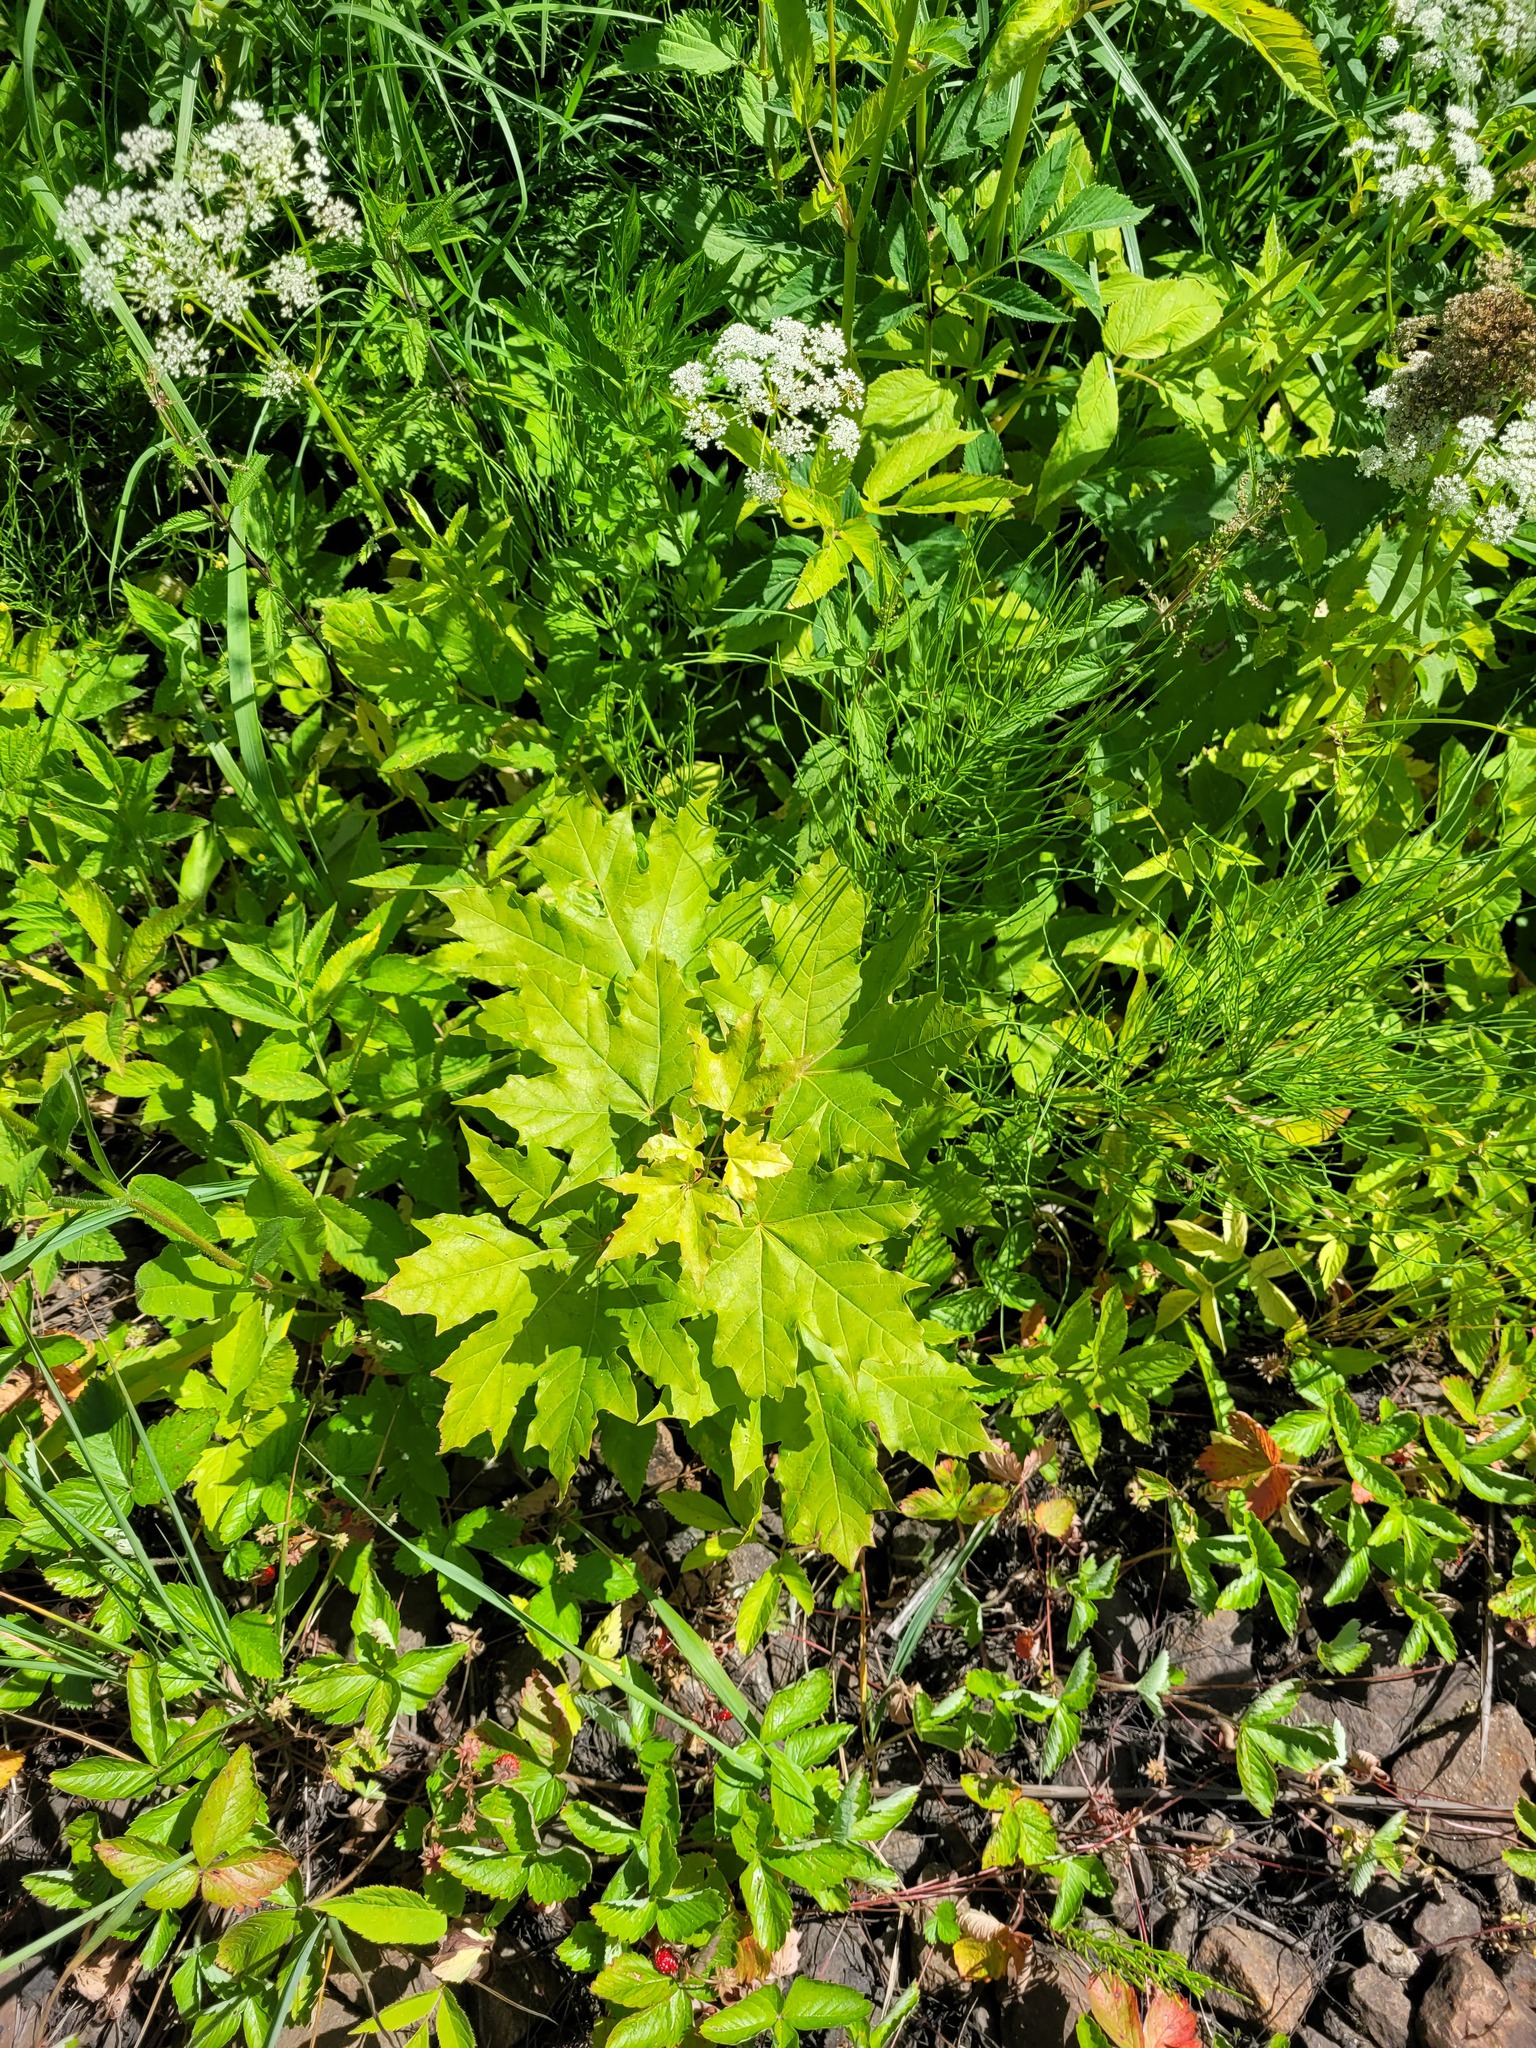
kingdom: Plantae
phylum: Tracheophyta
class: Magnoliopsida
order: Sapindales
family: Sapindaceae
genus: Acer
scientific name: Acer platanoides
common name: Norway maple
